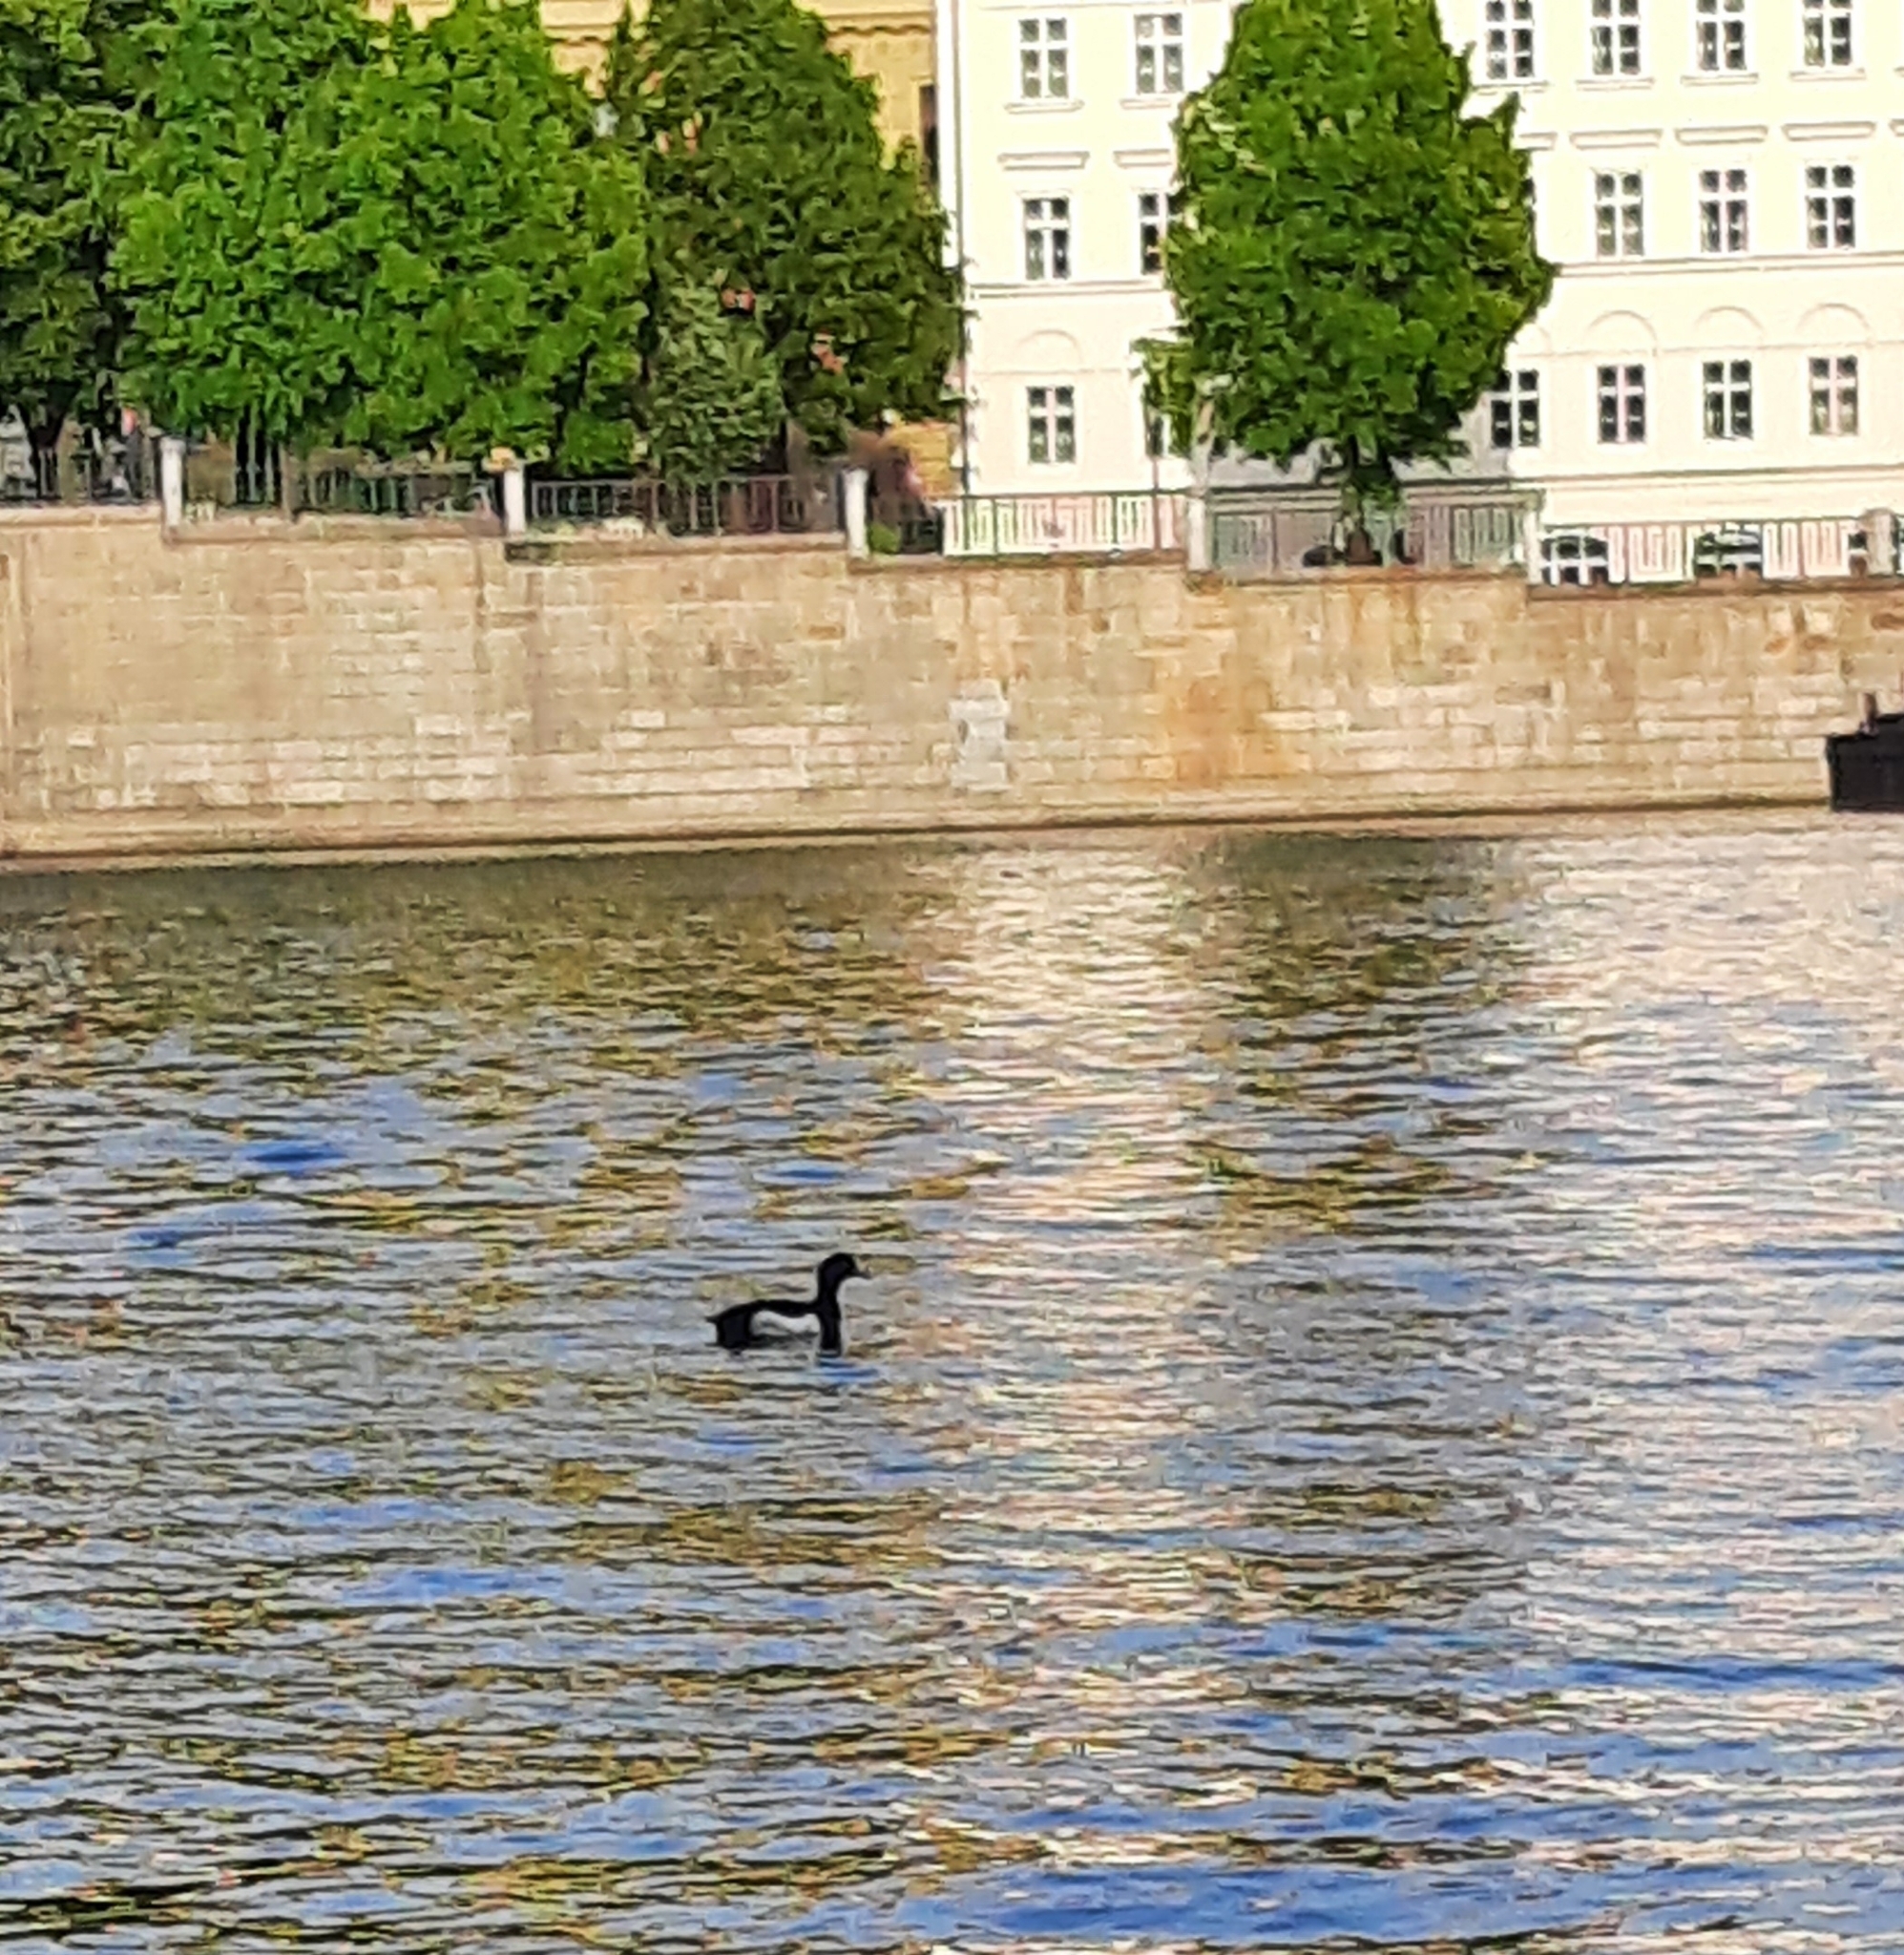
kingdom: Animalia
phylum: Chordata
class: Aves
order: Anseriformes
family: Anatidae
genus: Aythya
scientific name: Aythya fuligula
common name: Tufted duck
